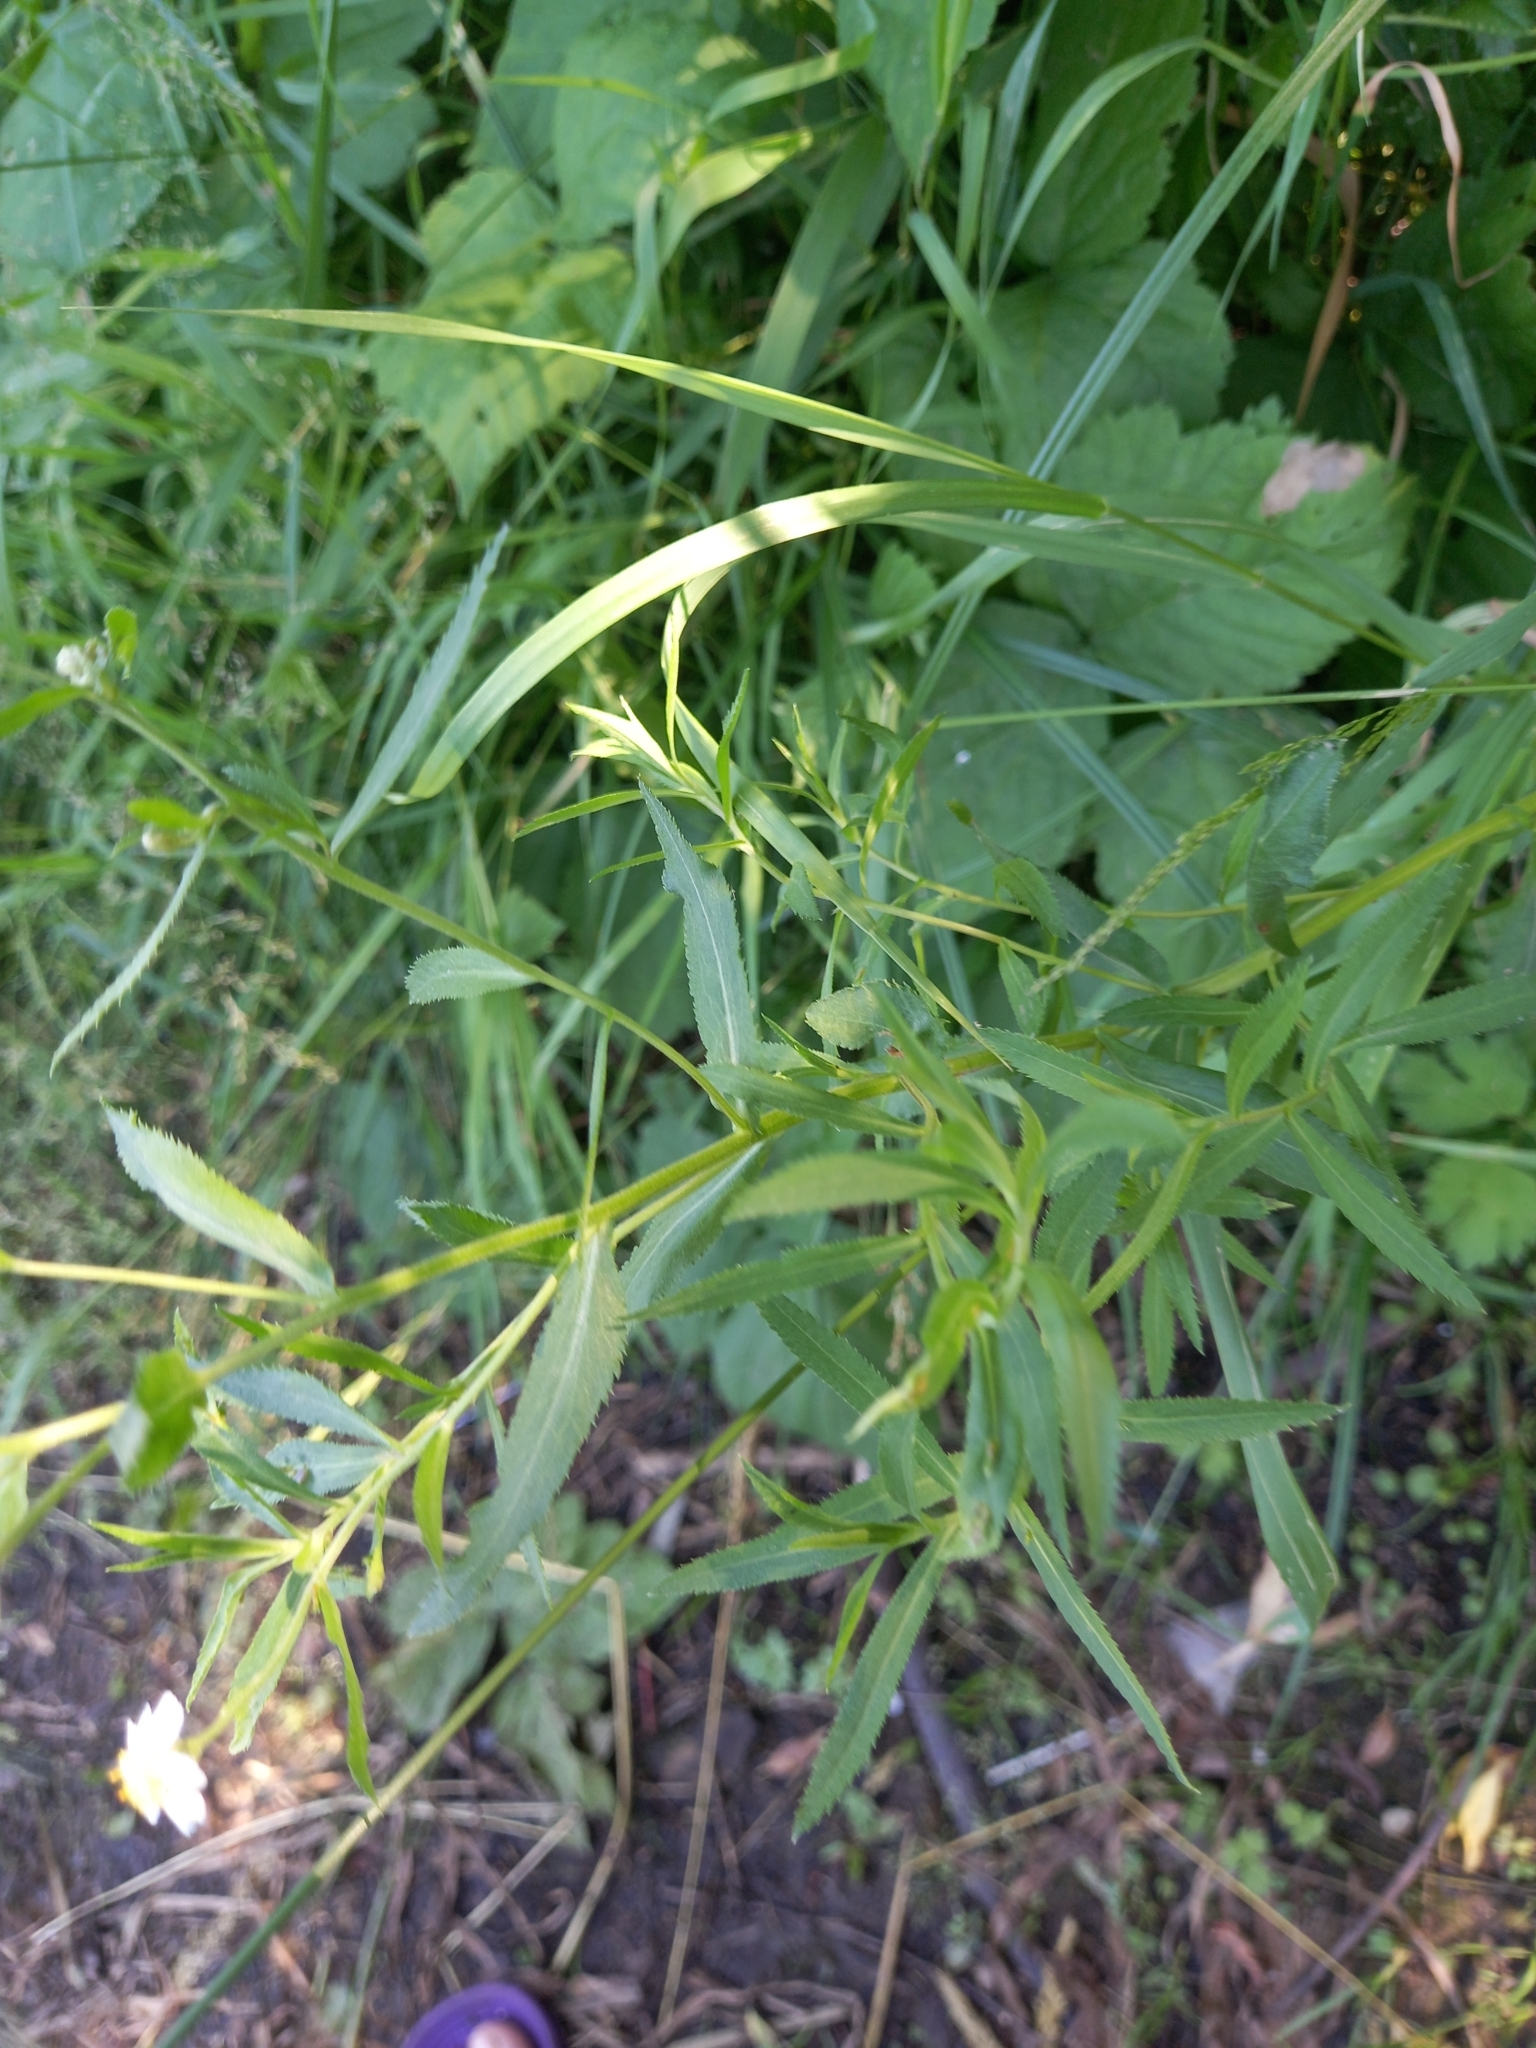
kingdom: Plantae
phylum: Tracheophyta
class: Magnoliopsida
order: Asterales
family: Asteraceae
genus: Achillea
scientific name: Achillea salicifolia
